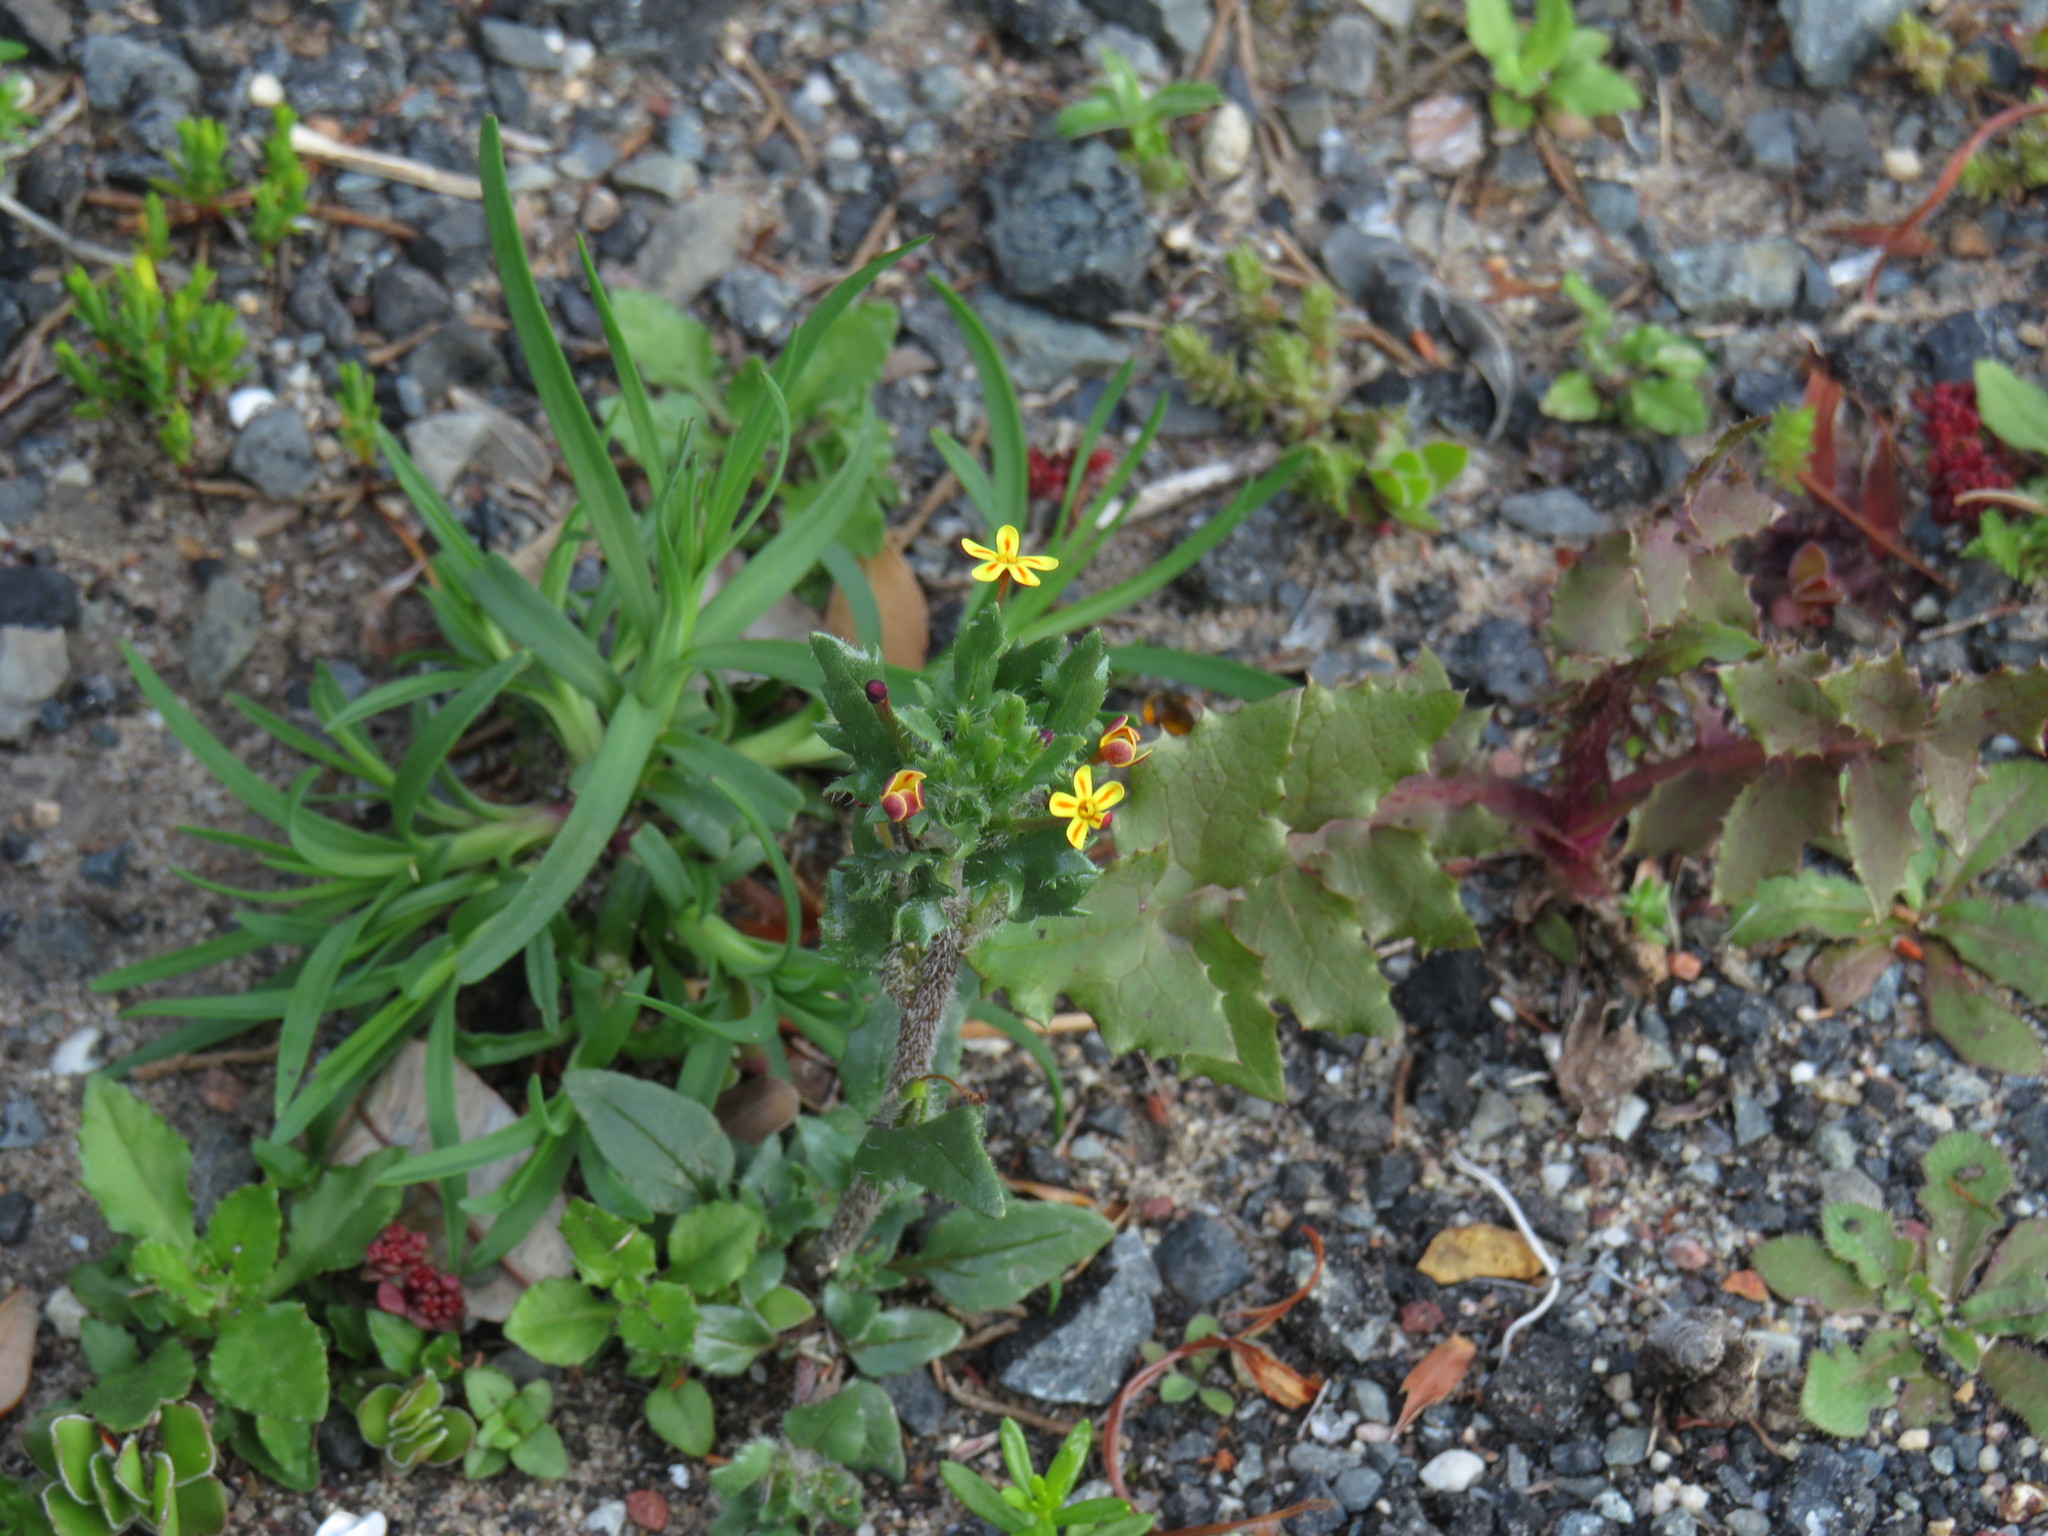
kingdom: Plantae
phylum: Tracheophyta
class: Magnoliopsida
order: Lamiales
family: Scrophulariaceae
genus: Zaluzianskya
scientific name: Zaluzianskya divaricata
